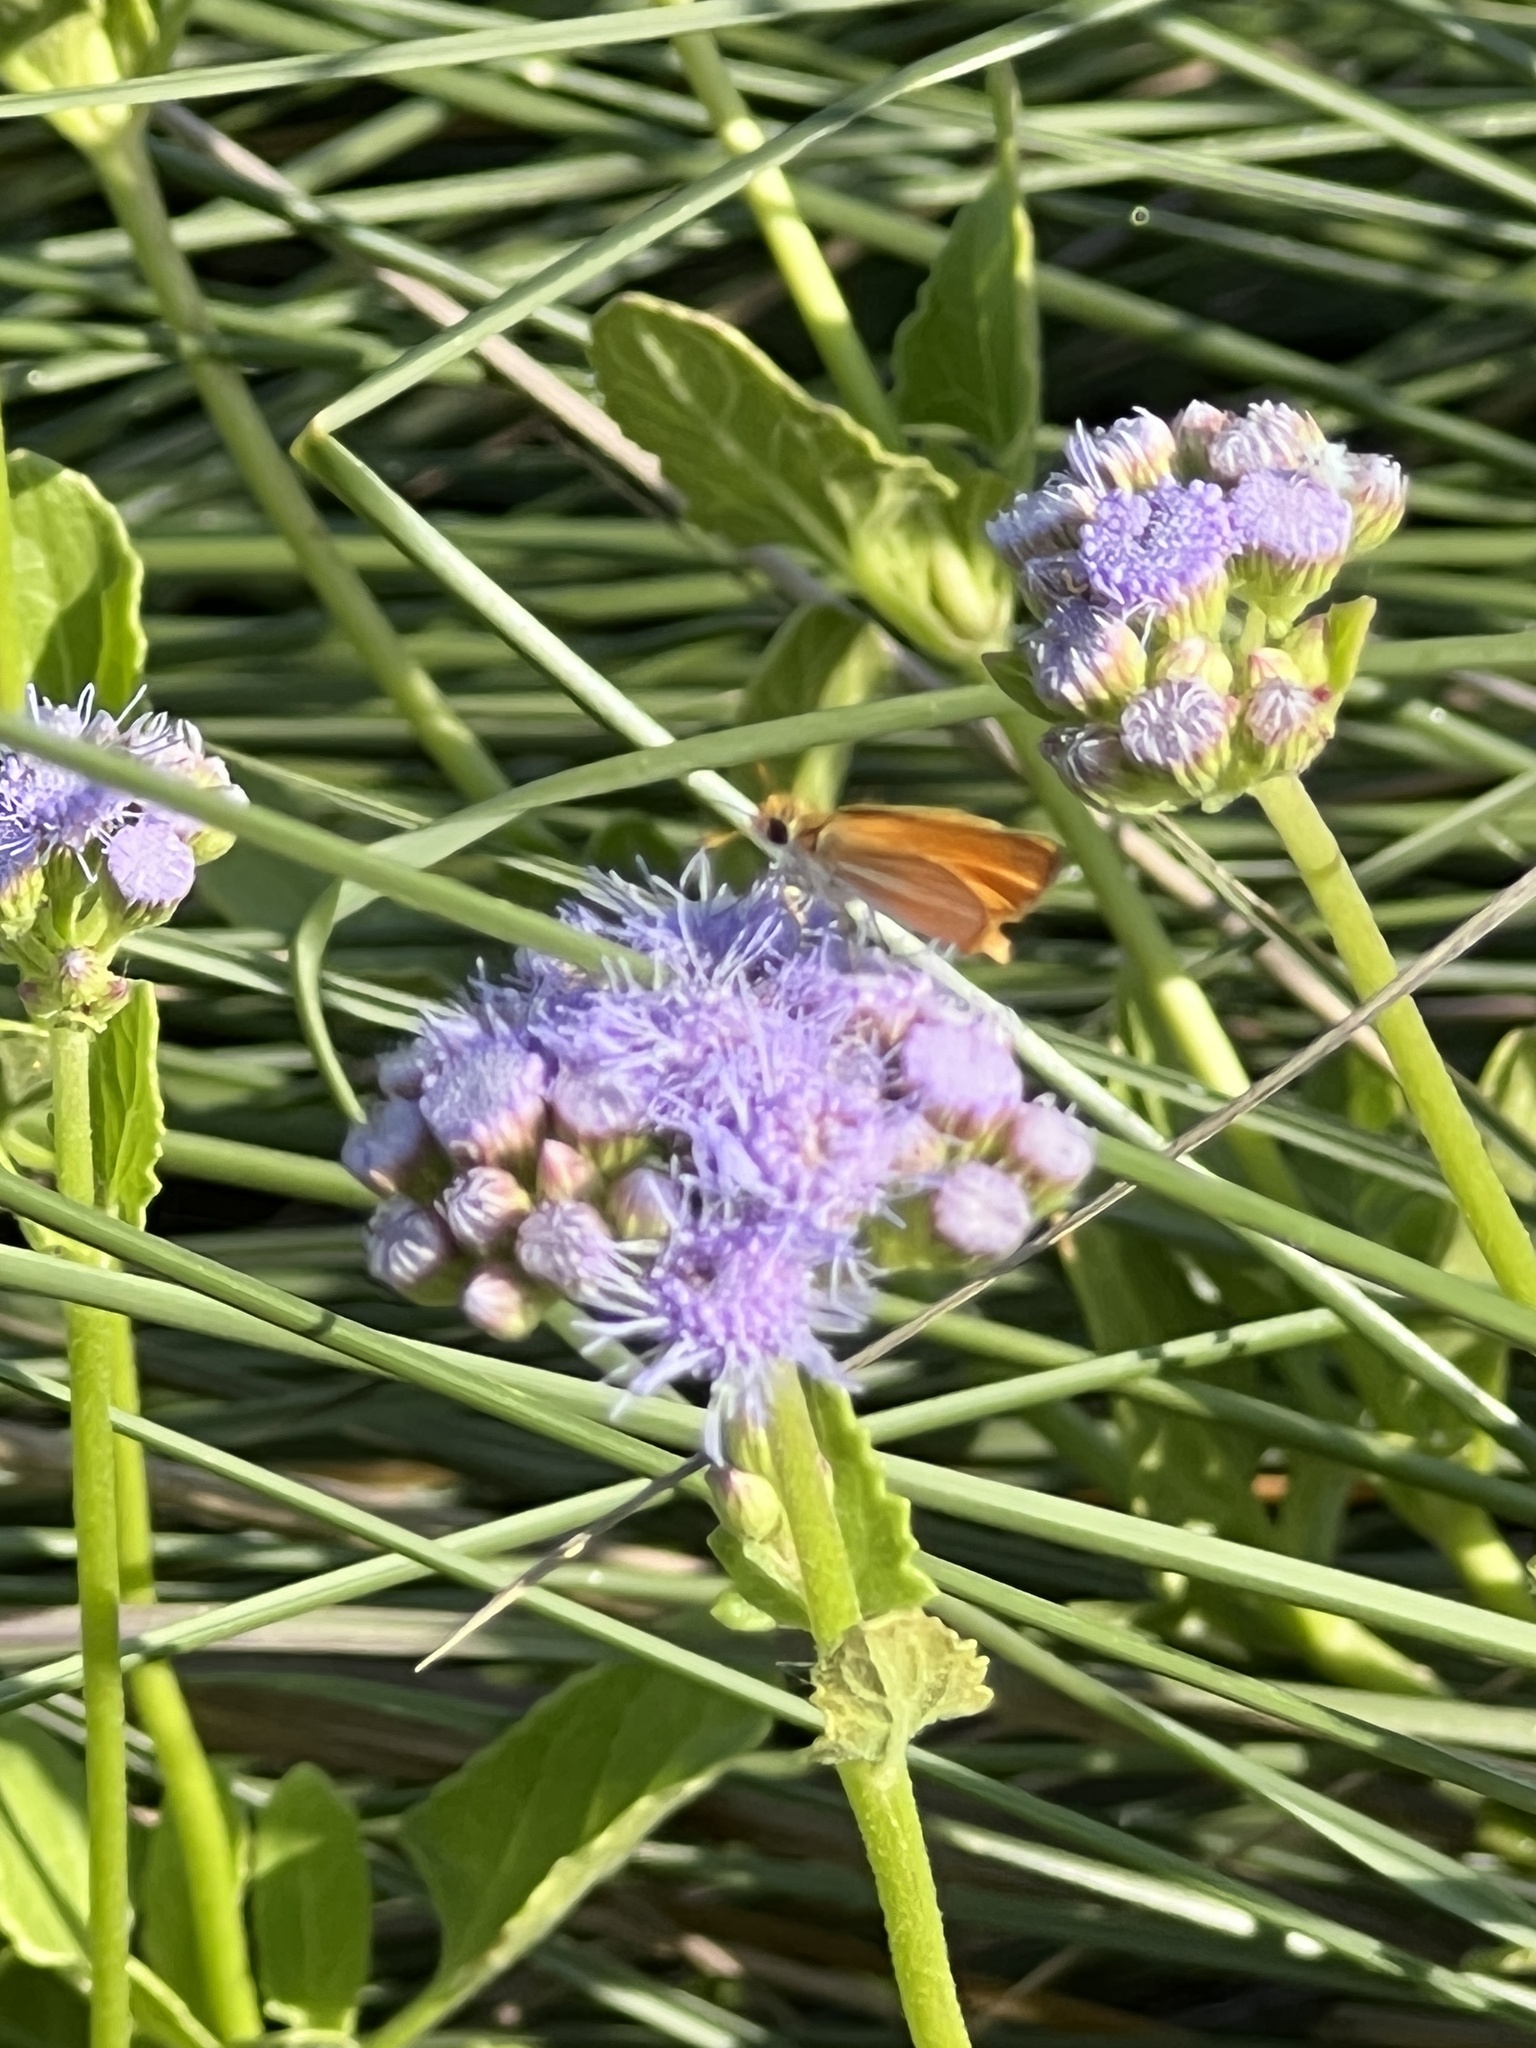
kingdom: Animalia
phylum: Arthropoda
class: Insecta
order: Lepidoptera
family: Hesperiidae
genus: Copaeodes
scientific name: Copaeodes minima
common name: Southern skipperling
